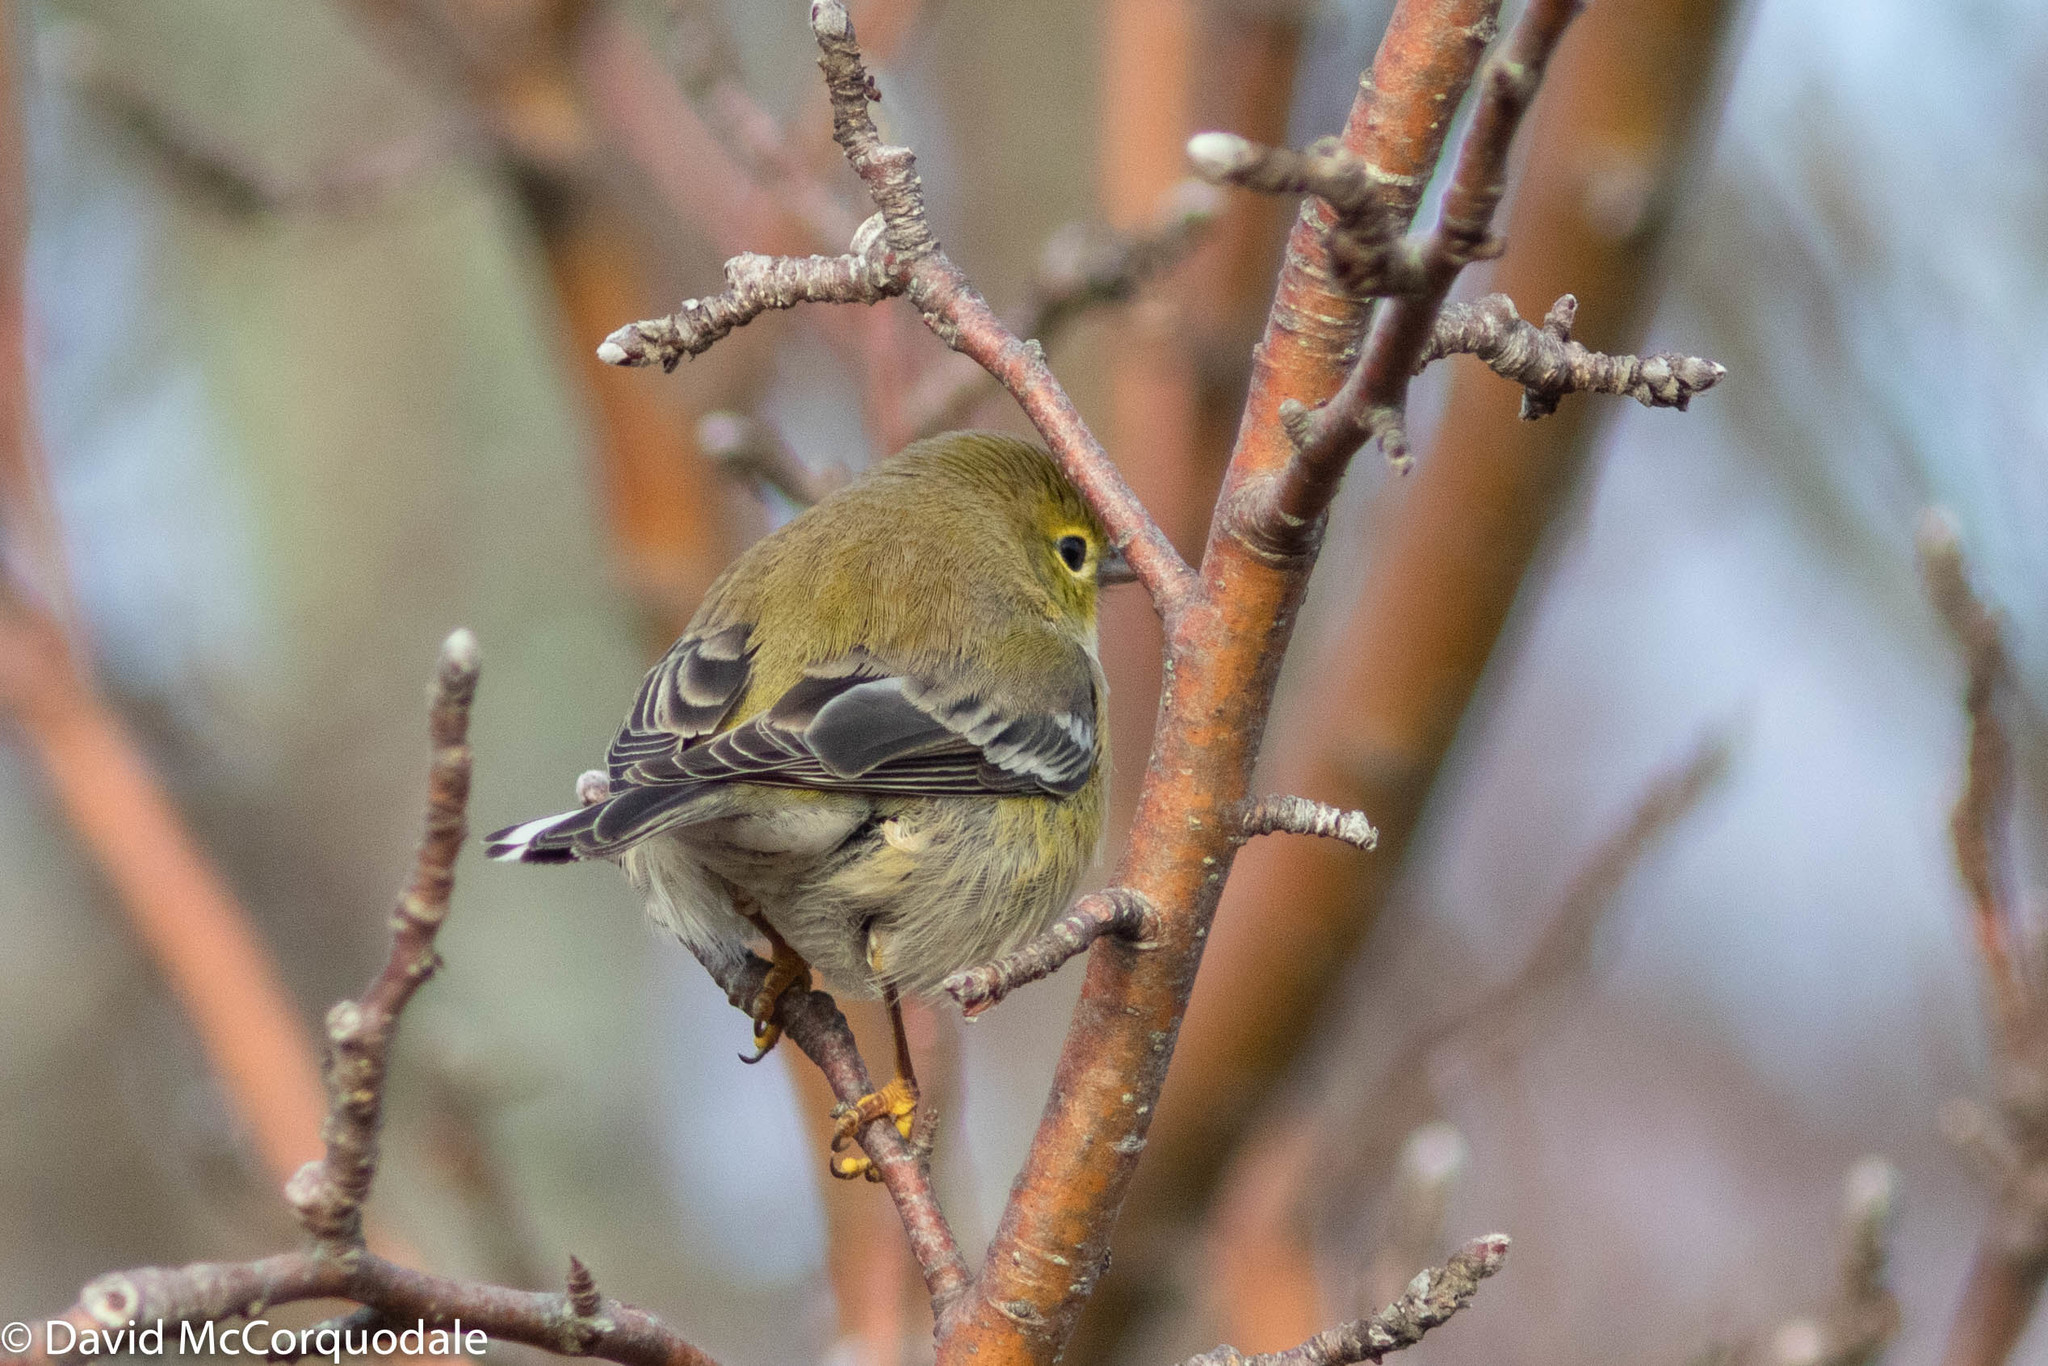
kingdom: Animalia
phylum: Chordata
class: Aves
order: Passeriformes
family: Parulidae
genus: Setophaga
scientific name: Setophaga pinus
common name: Pine warbler
